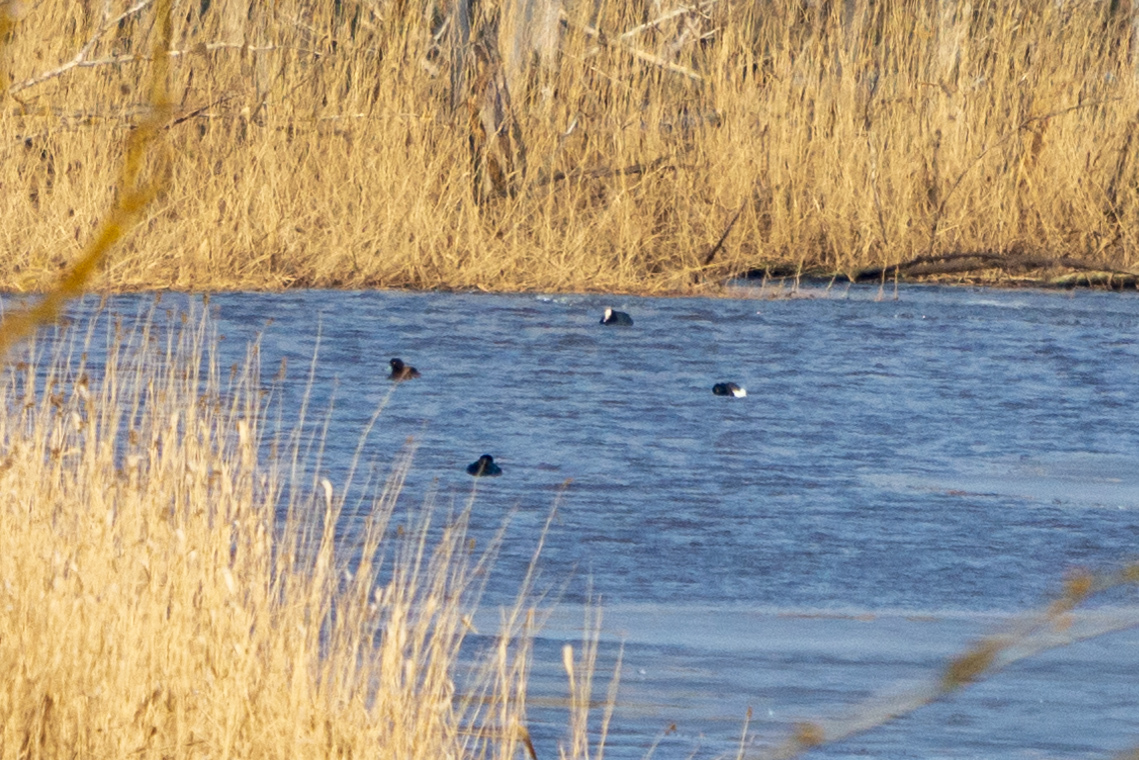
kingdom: Animalia
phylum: Chordata
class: Aves
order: Anseriformes
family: Anatidae
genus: Aythya
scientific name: Aythya fuligula
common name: Tufted duck
